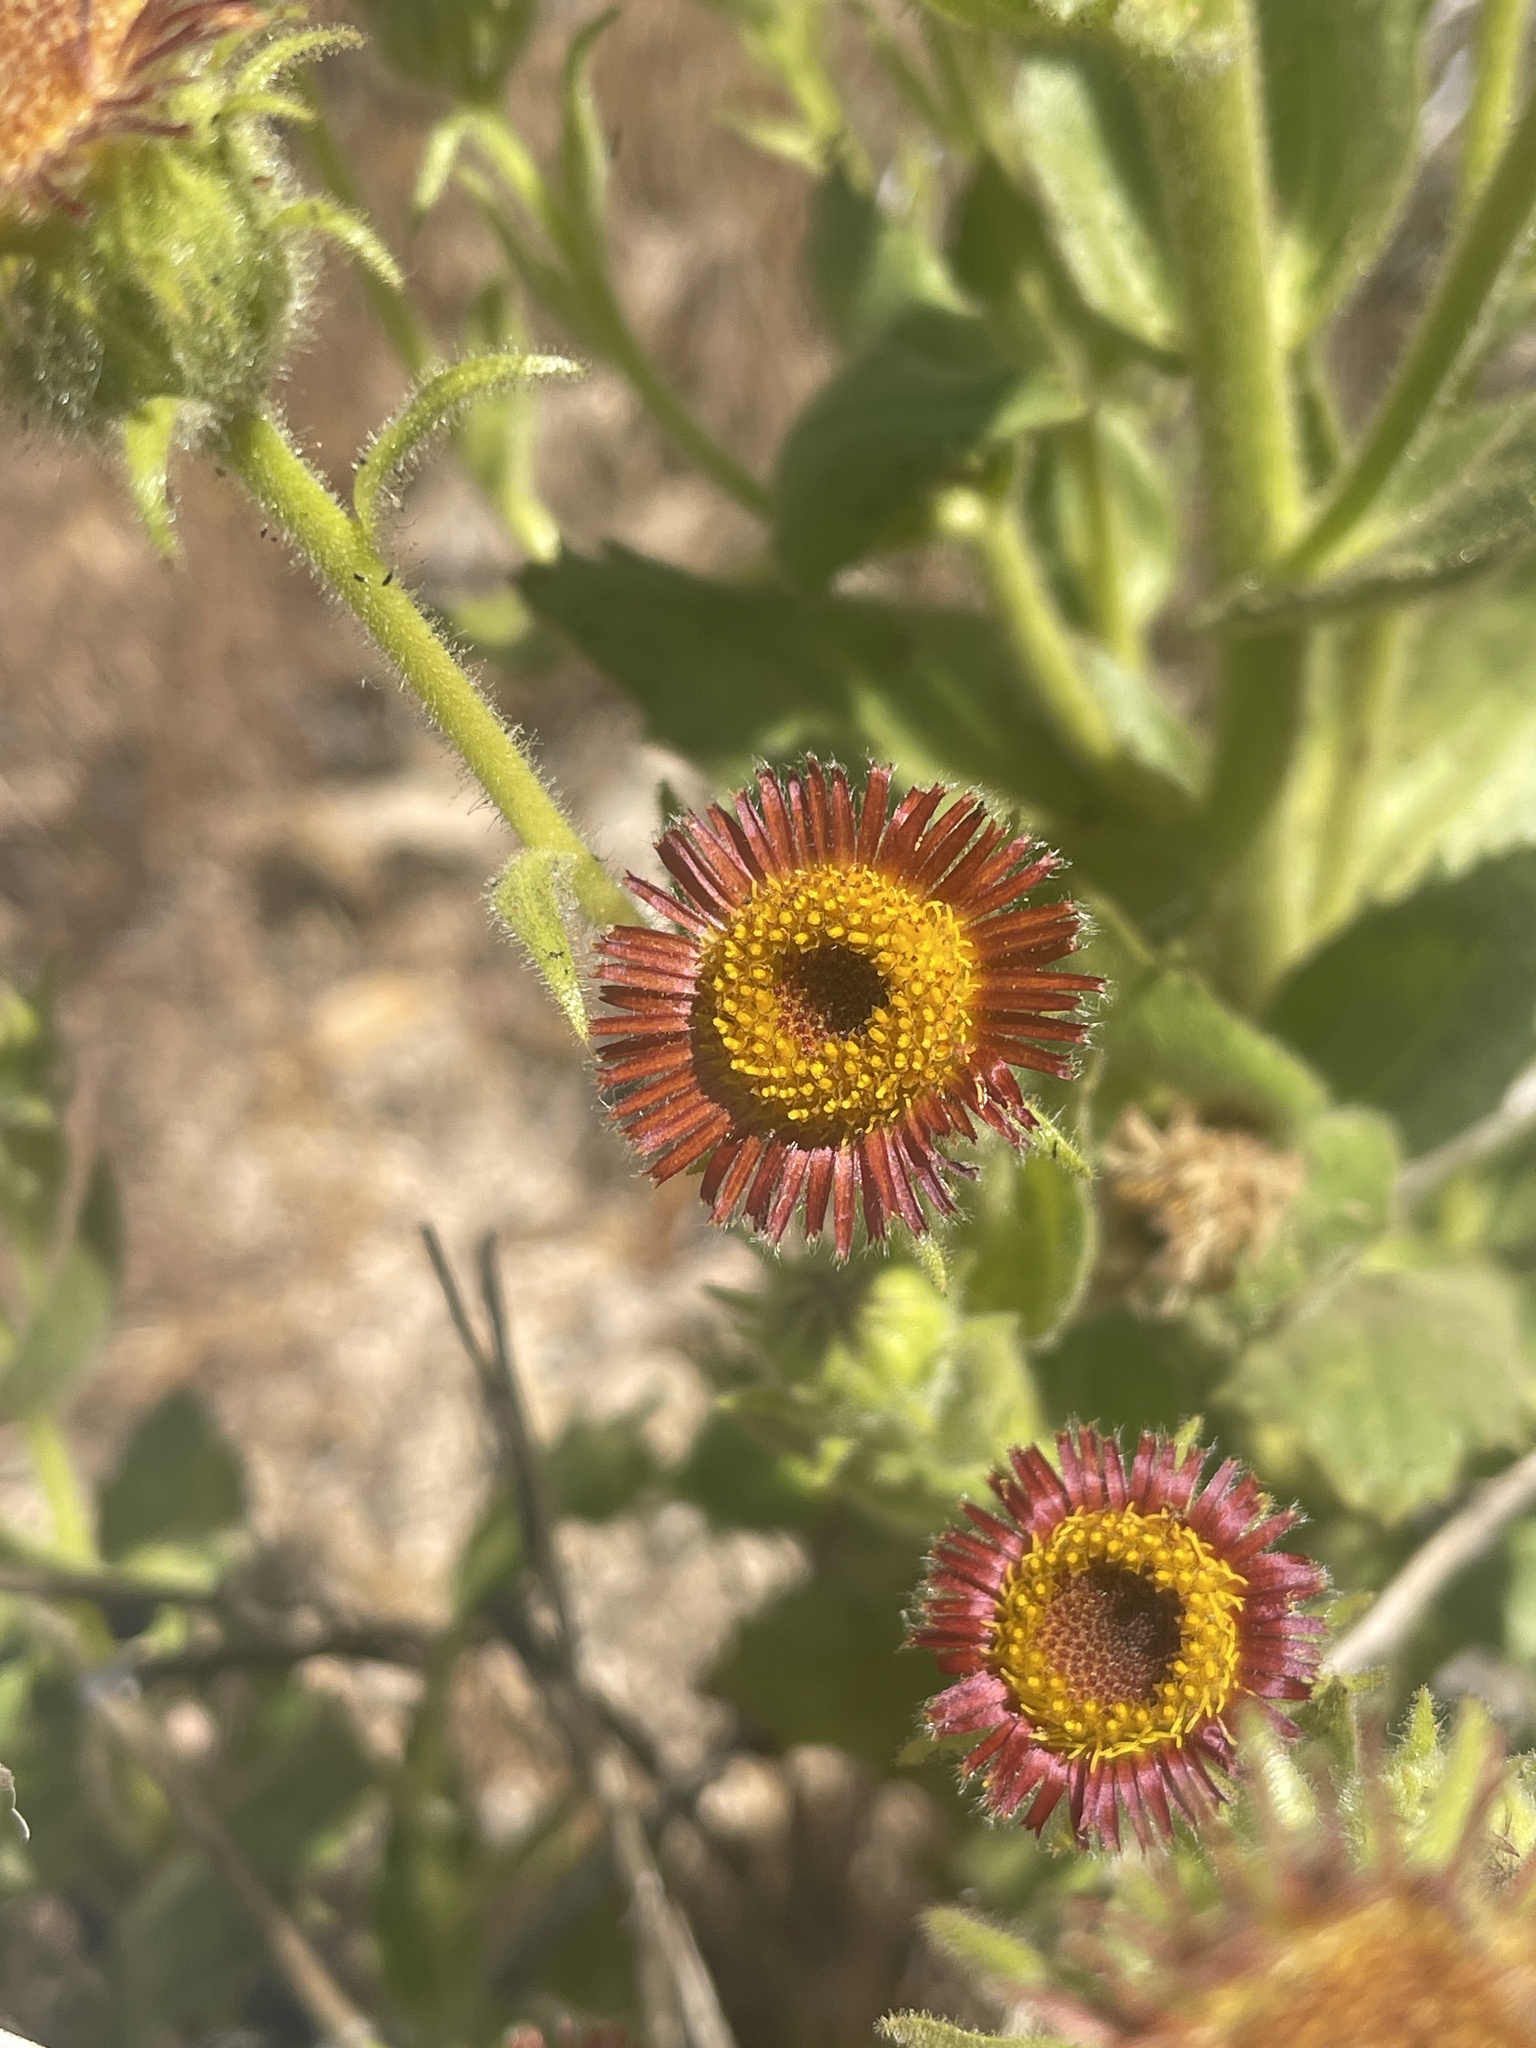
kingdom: Plantae
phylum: Tracheophyta
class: Magnoliopsida
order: Asterales
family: Asteraceae
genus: Hulsea
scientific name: Hulsea heterochroma
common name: Redray alpinegold
